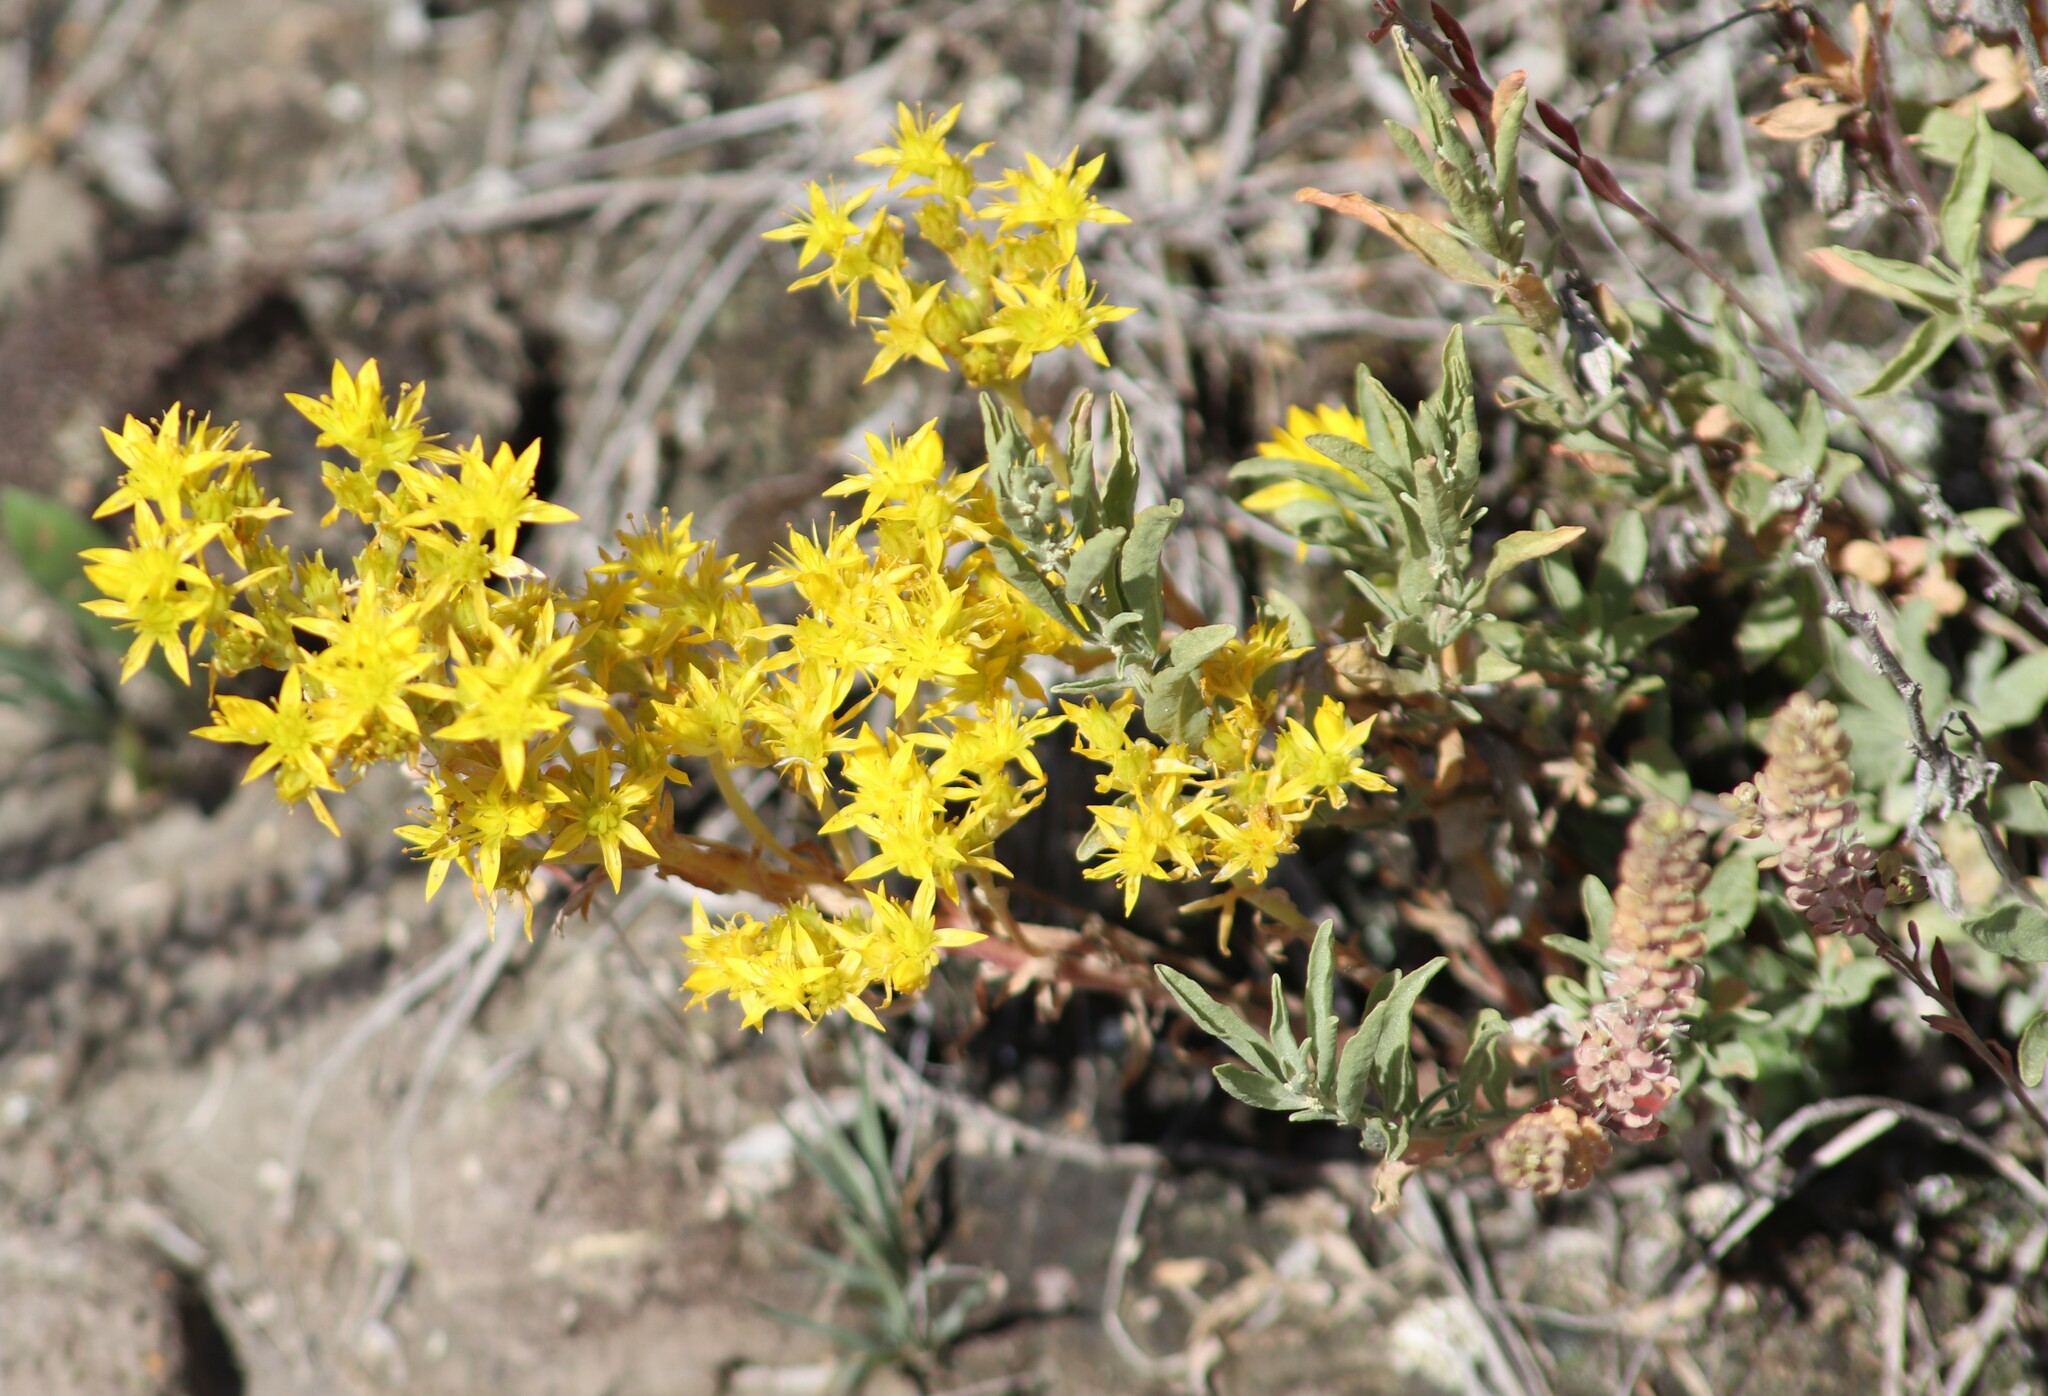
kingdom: Plantae
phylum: Tracheophyta
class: Magnoliopsida
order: Saxifragales
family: Crassulaceae
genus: Sedum
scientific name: Sedum lanceolatum
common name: Common stonecrop
